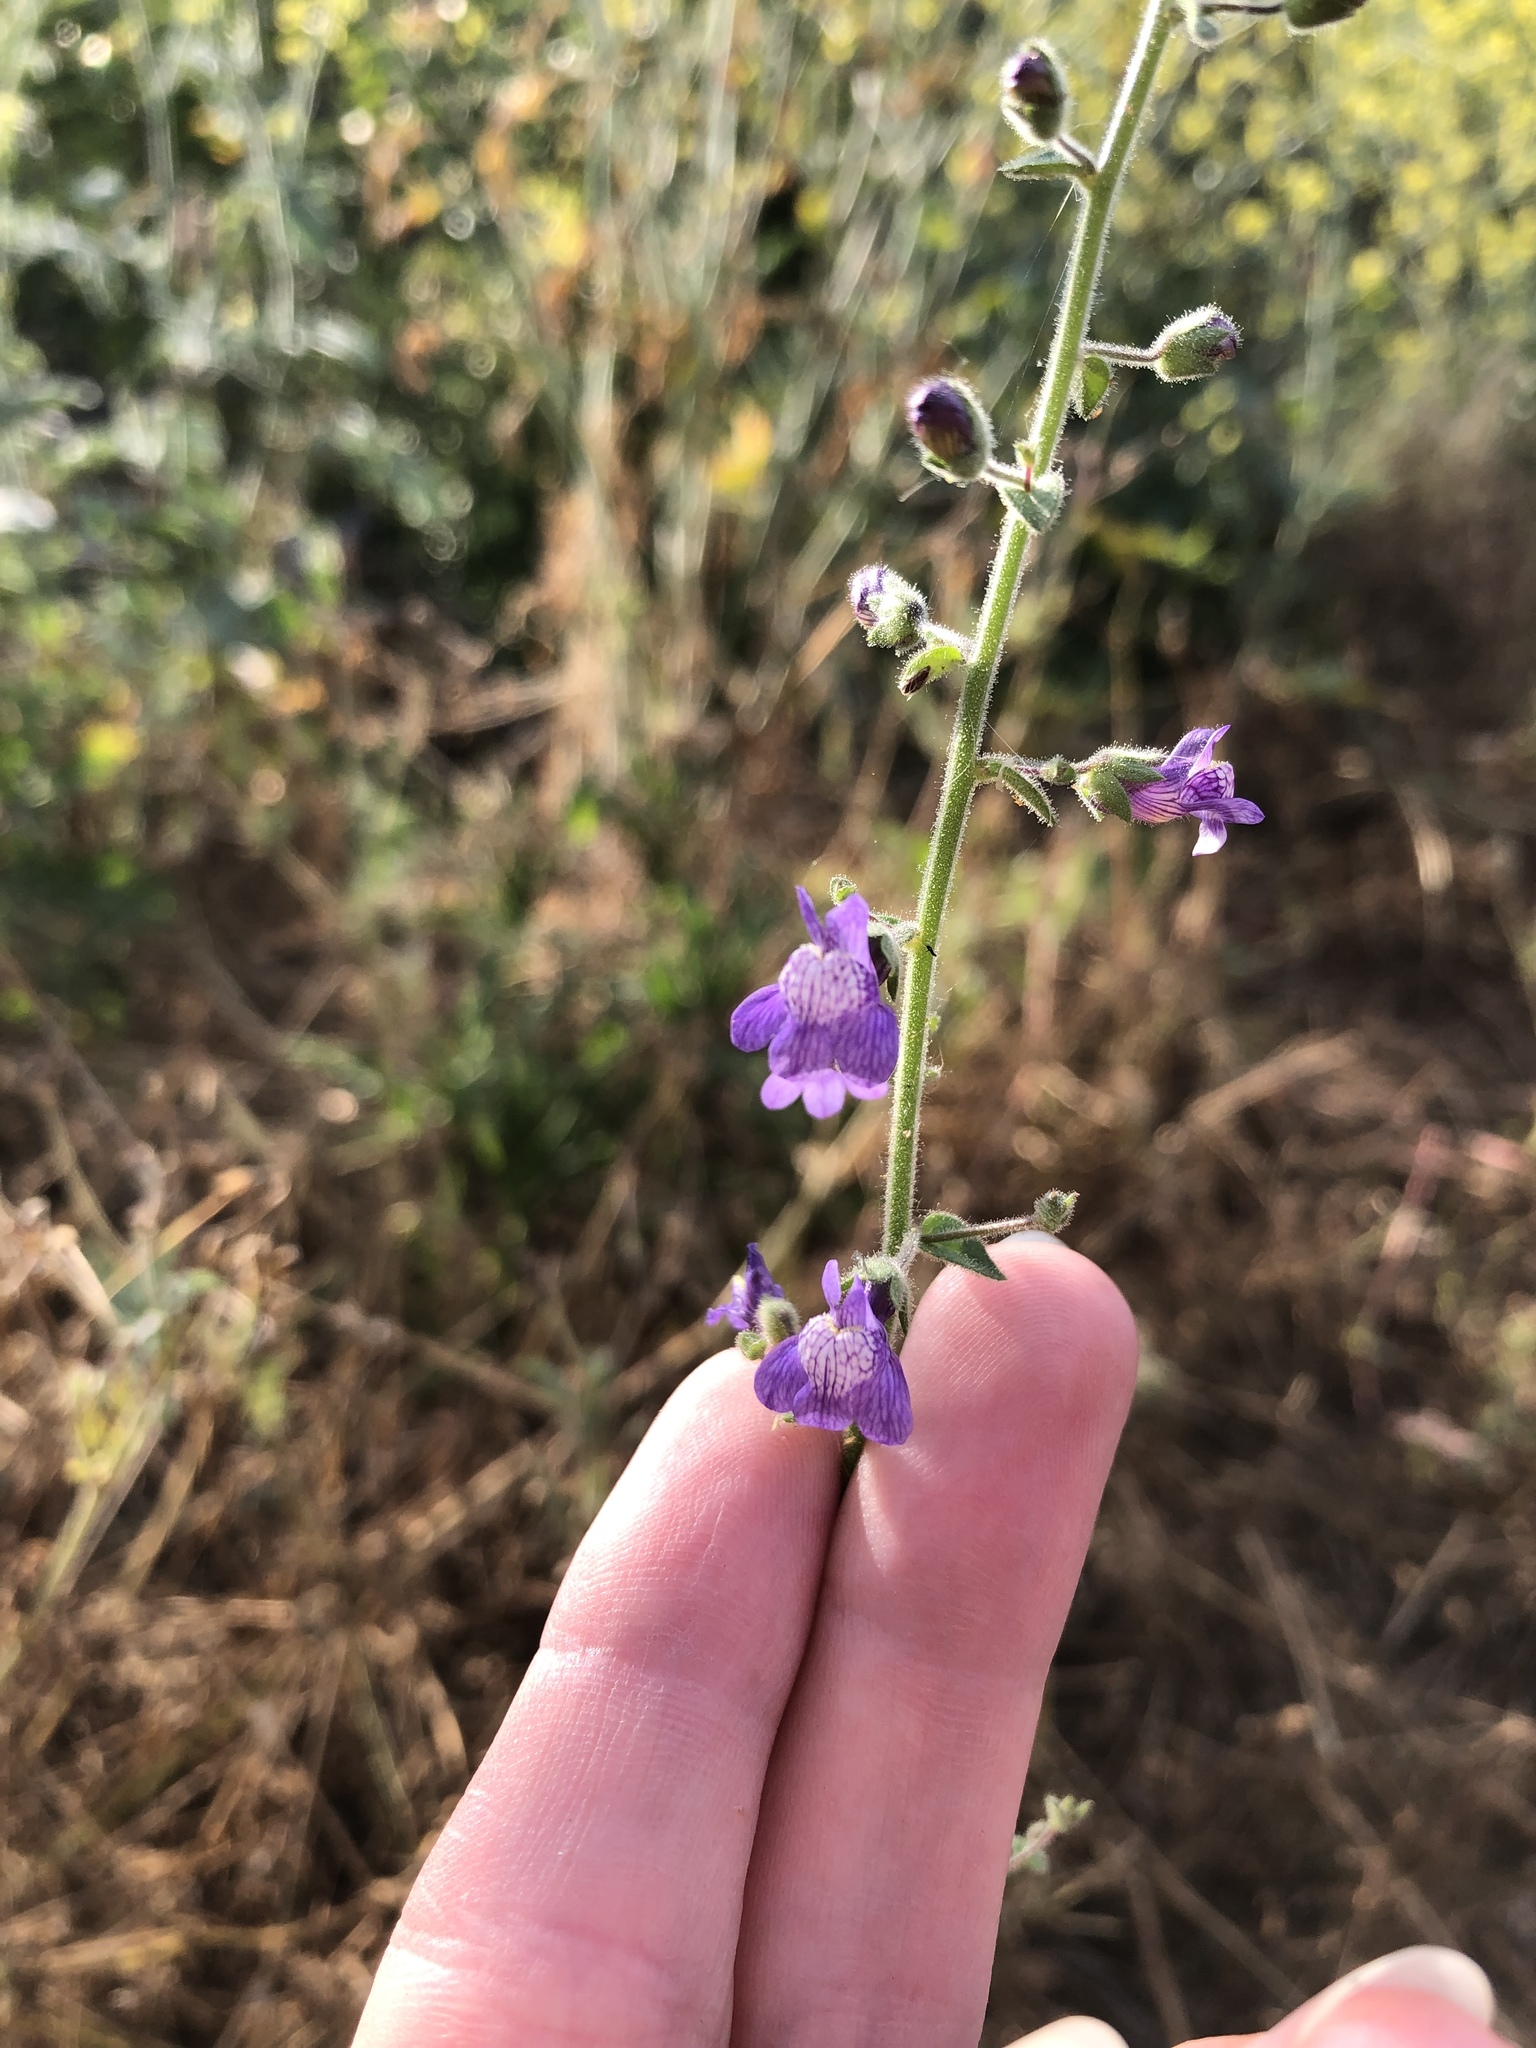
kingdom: Plantae
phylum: Tracheophyta
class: Magnoliopsida
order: Lamiales
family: Plantaginaceae
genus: Sairocarpus
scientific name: Sairocarpus nuttallianus
